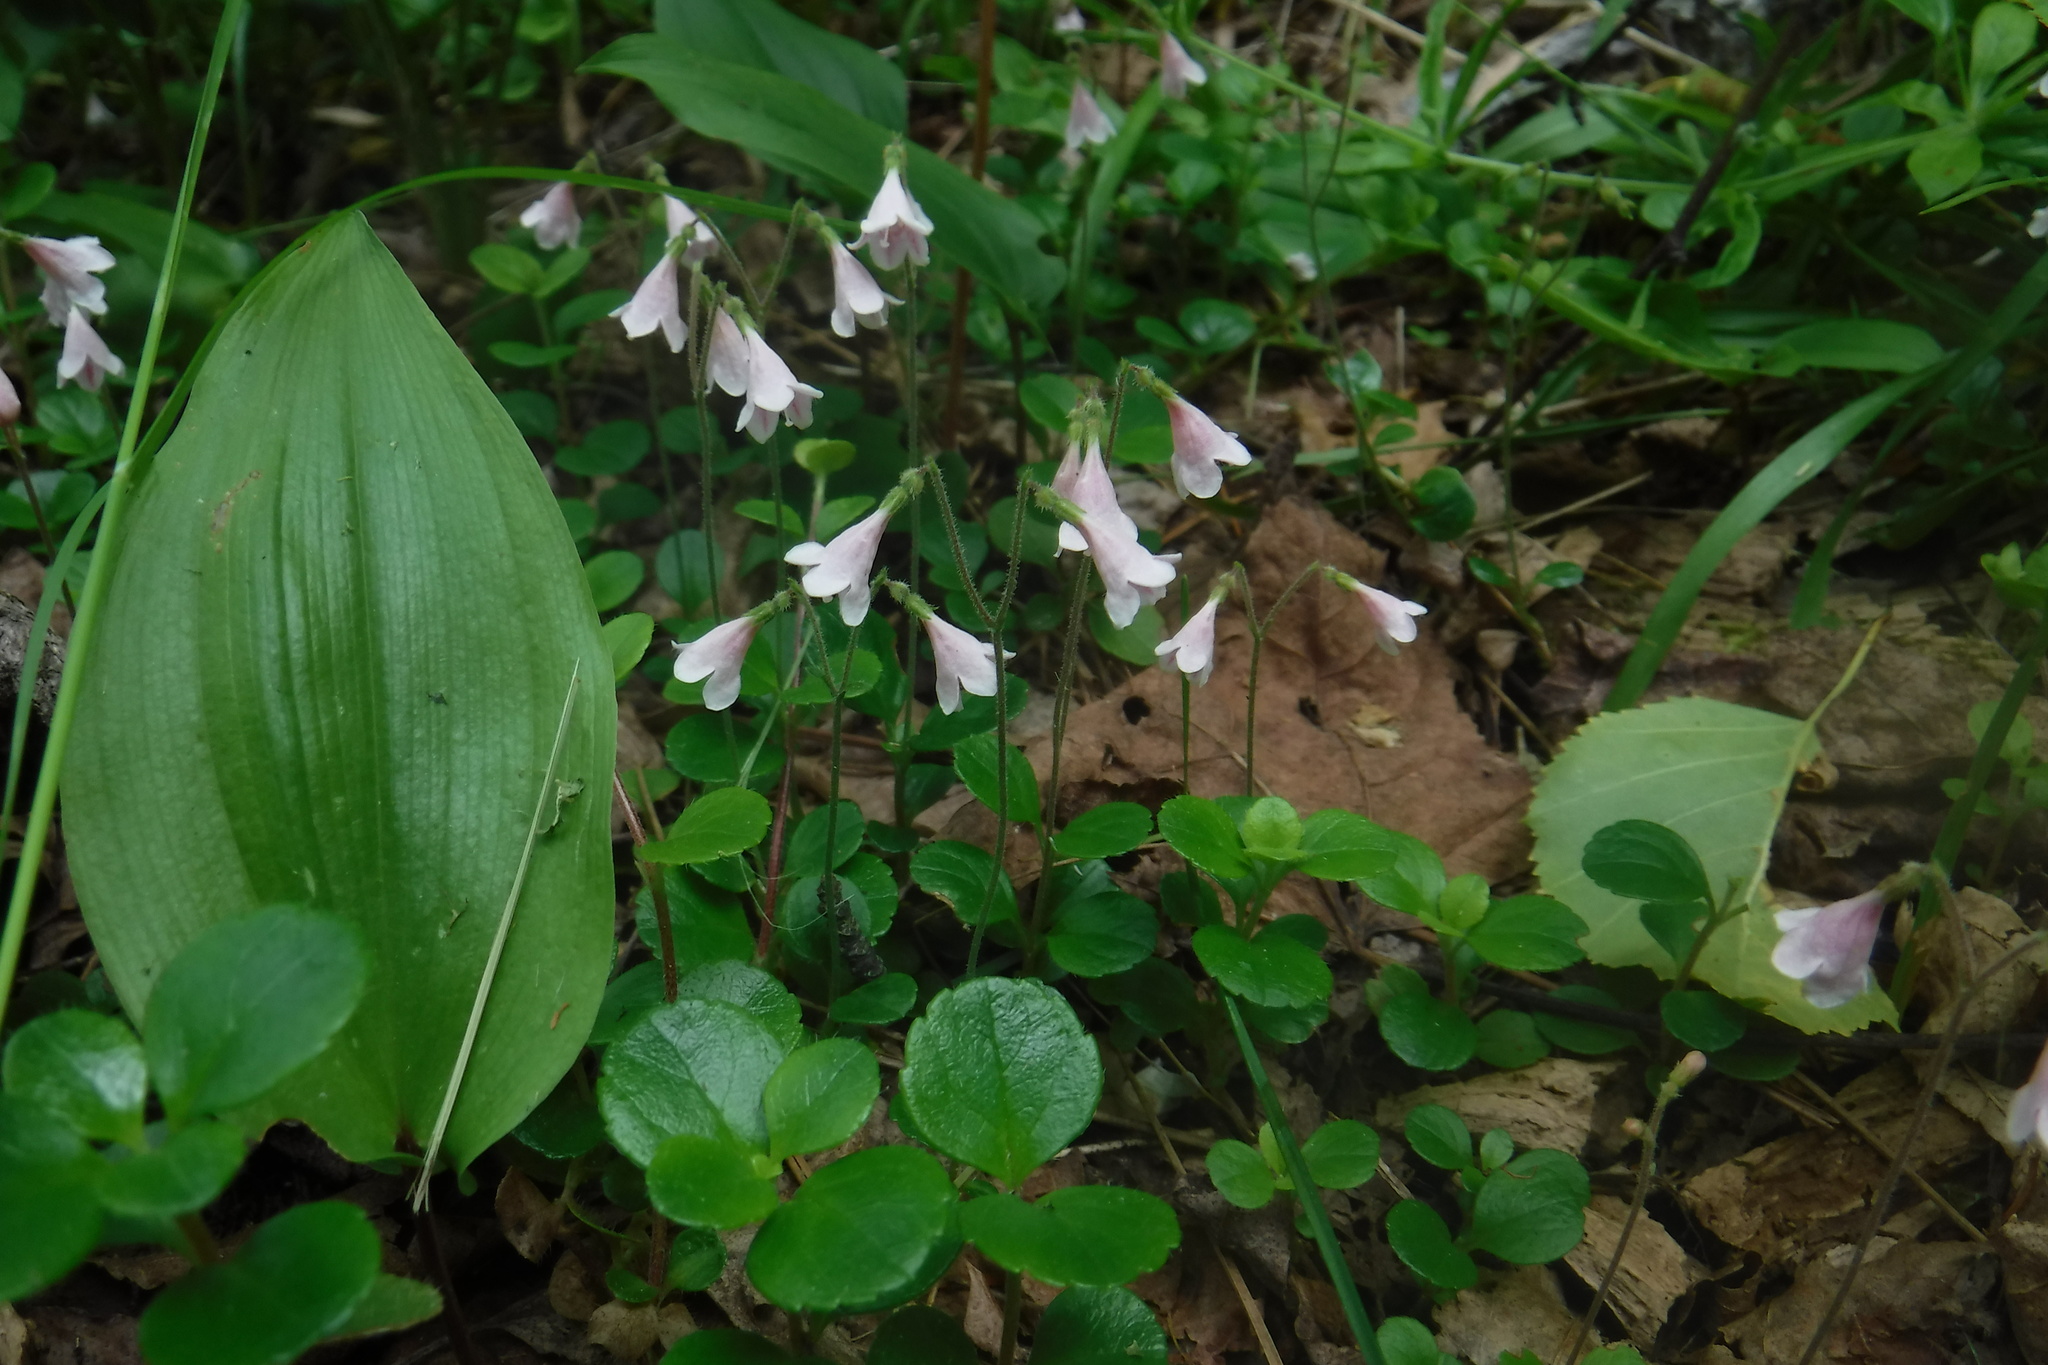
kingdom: Plantae
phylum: Tracheophyta
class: Magnoliopsida
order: Dipsacales
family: Caprifoliaceae
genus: Linnaea
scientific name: Linnaea borealis
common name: Twinflower
